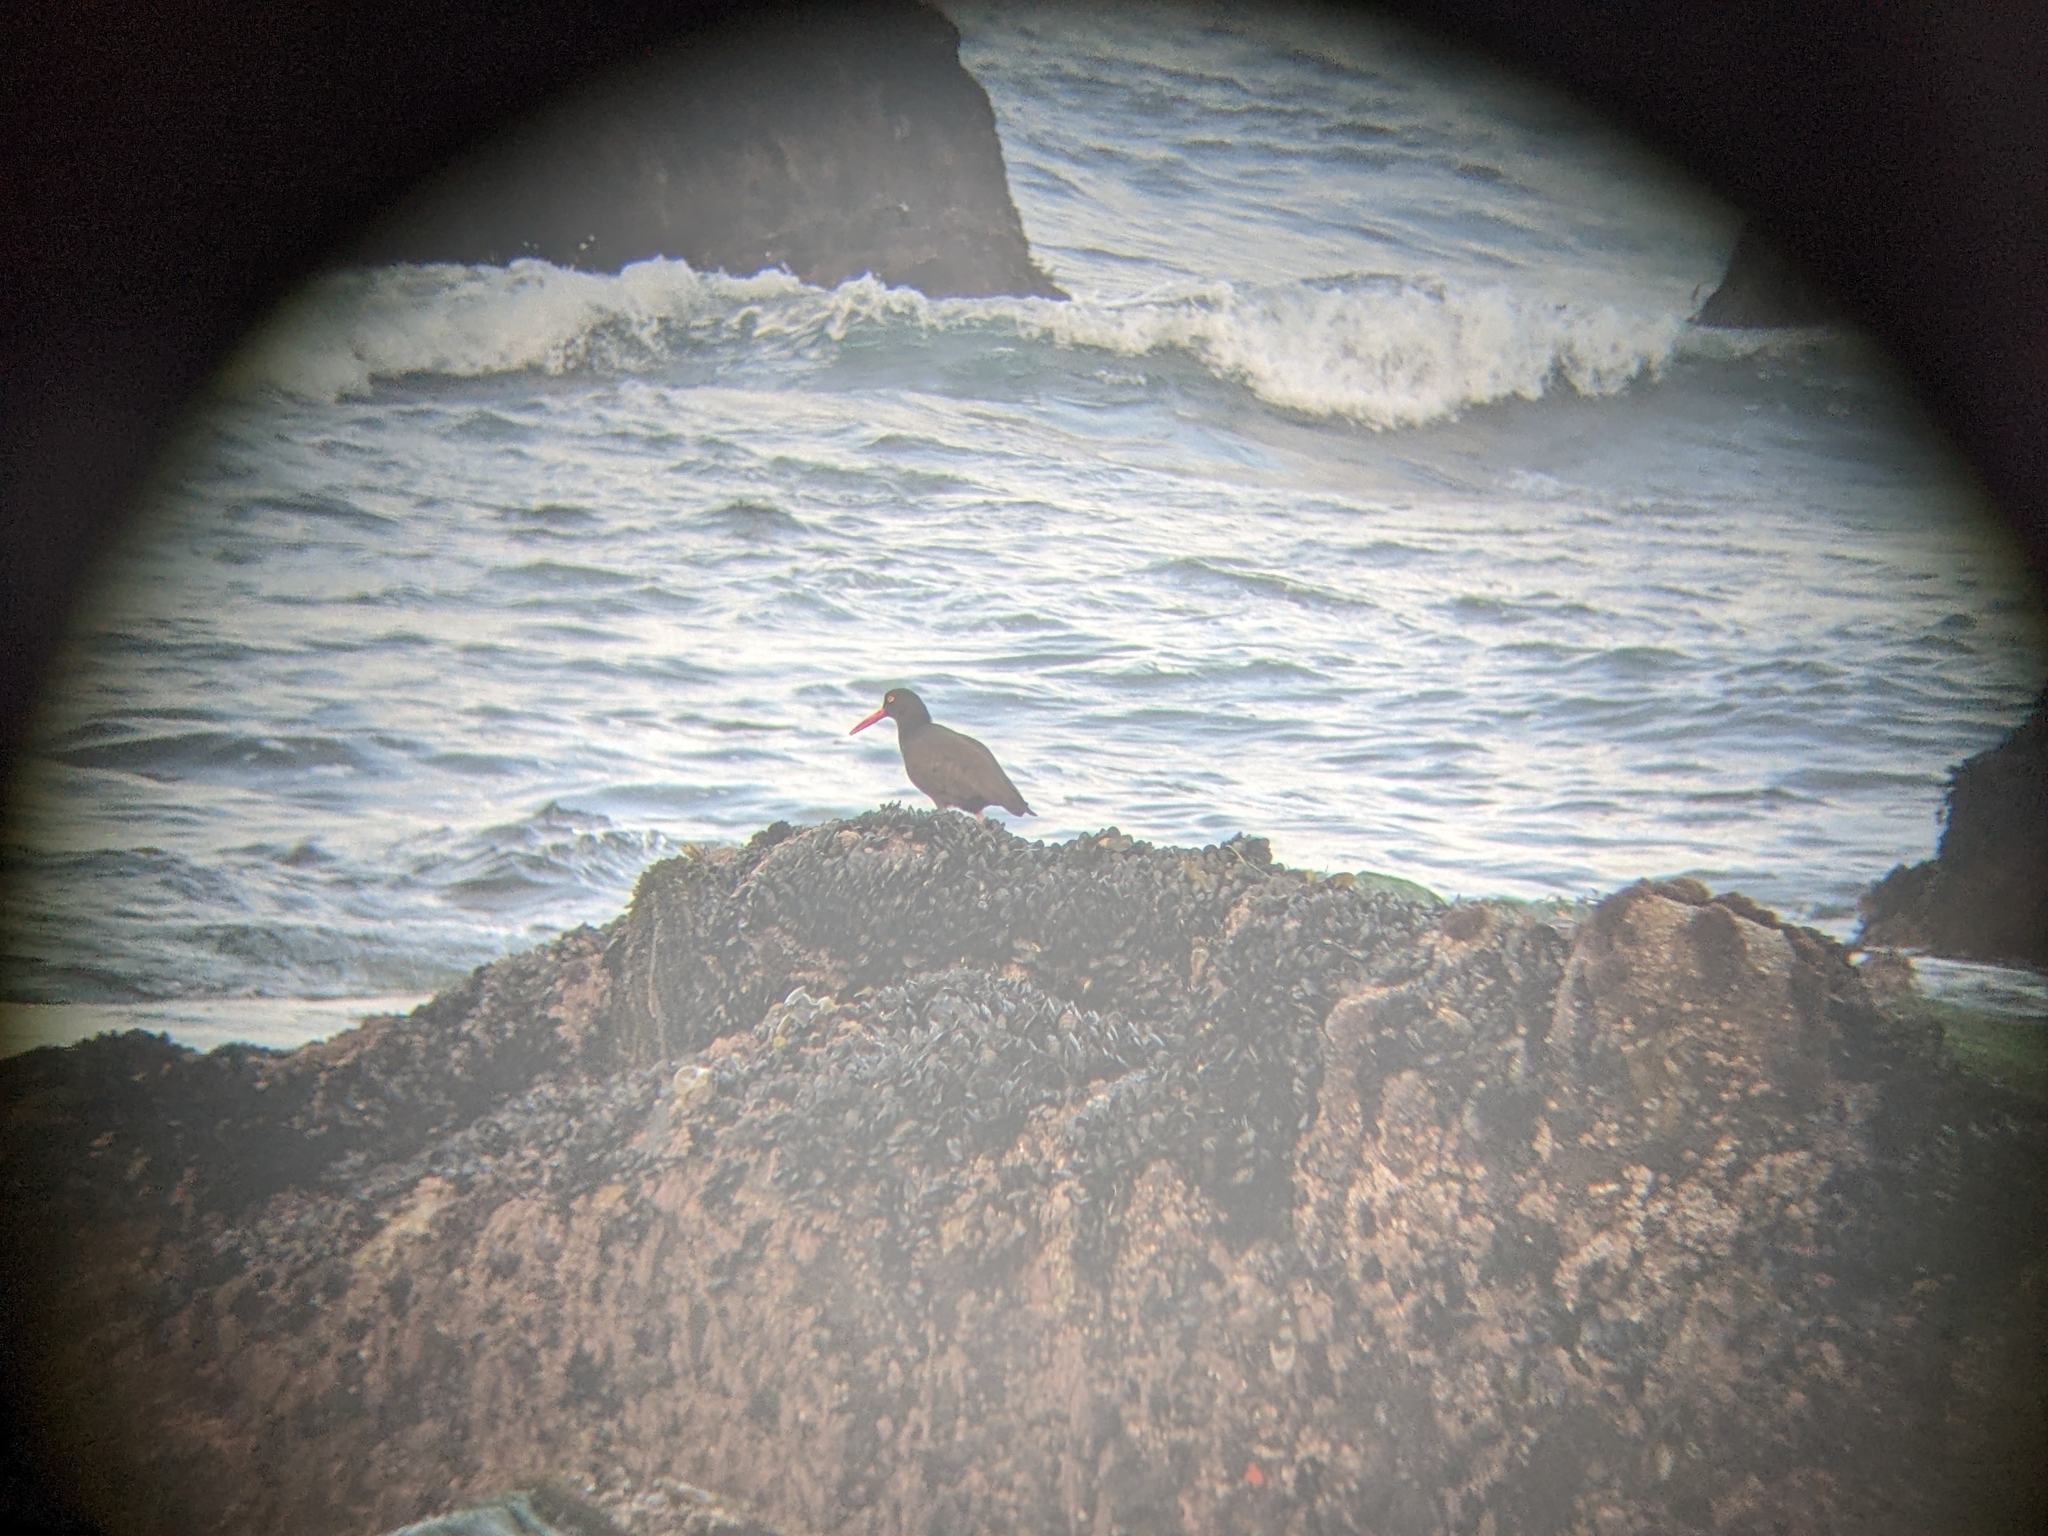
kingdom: Animalia
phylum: Chordata
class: Aves
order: Charadriiformes
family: Haematopodidae
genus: Haematopus
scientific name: Haematopus bachmani
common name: Black oystercatcher
